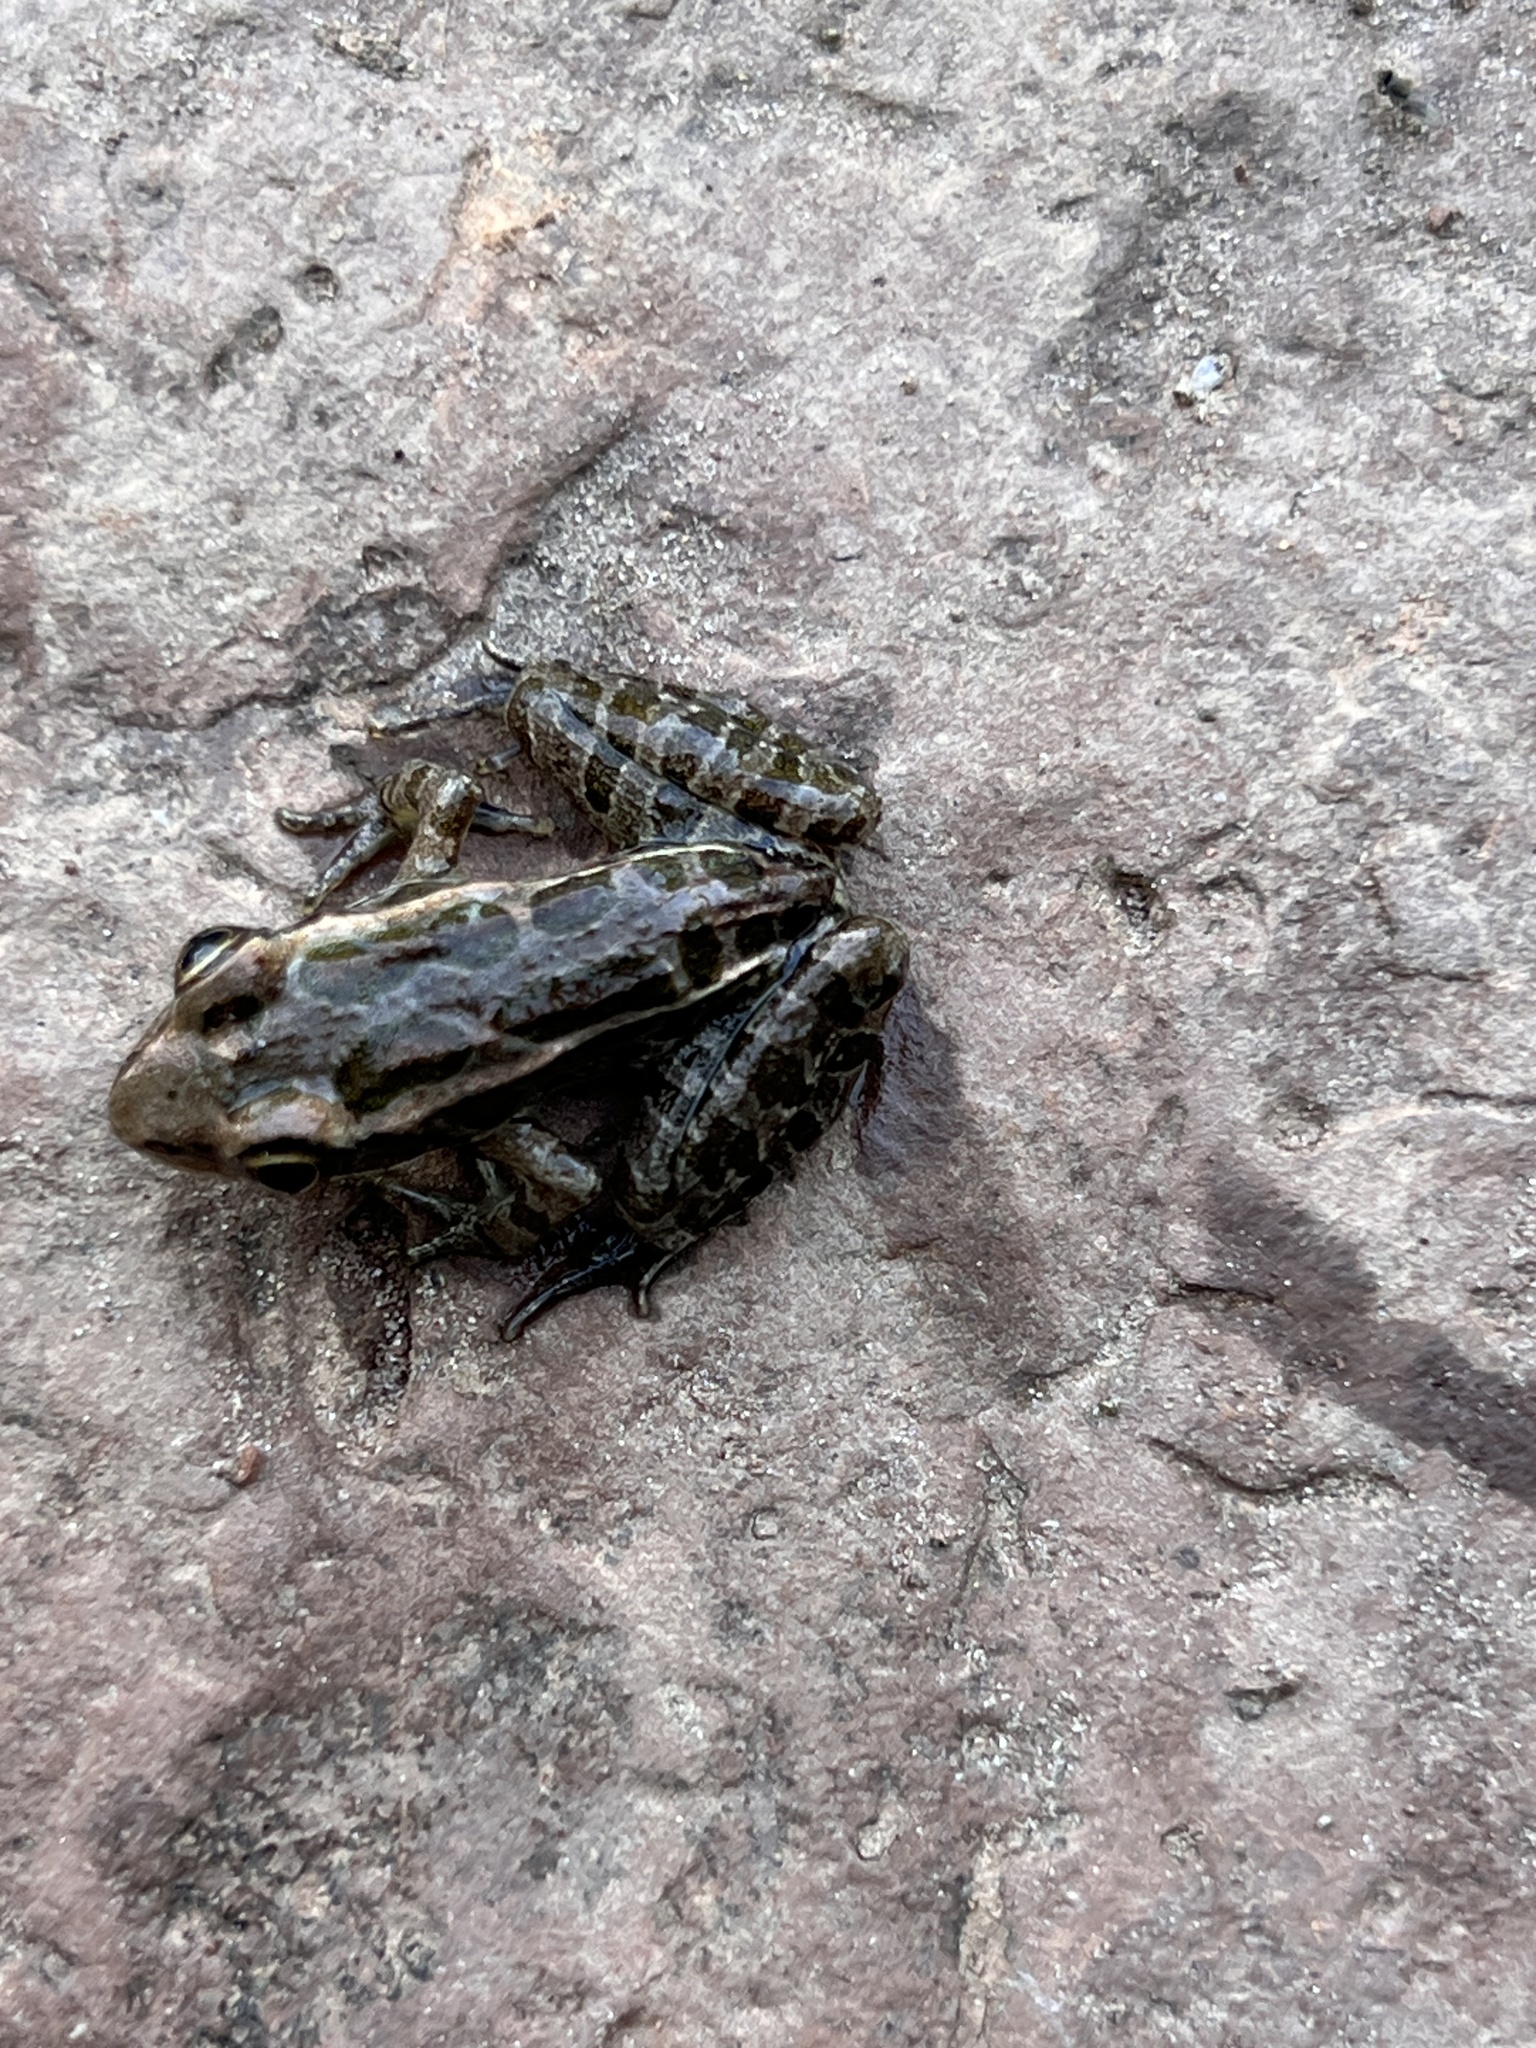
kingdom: Animalia
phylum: Chordata
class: Amphibia
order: Anura
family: Ranidae
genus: Lithobates
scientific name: Lithobates palustris
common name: Pickerel frog
